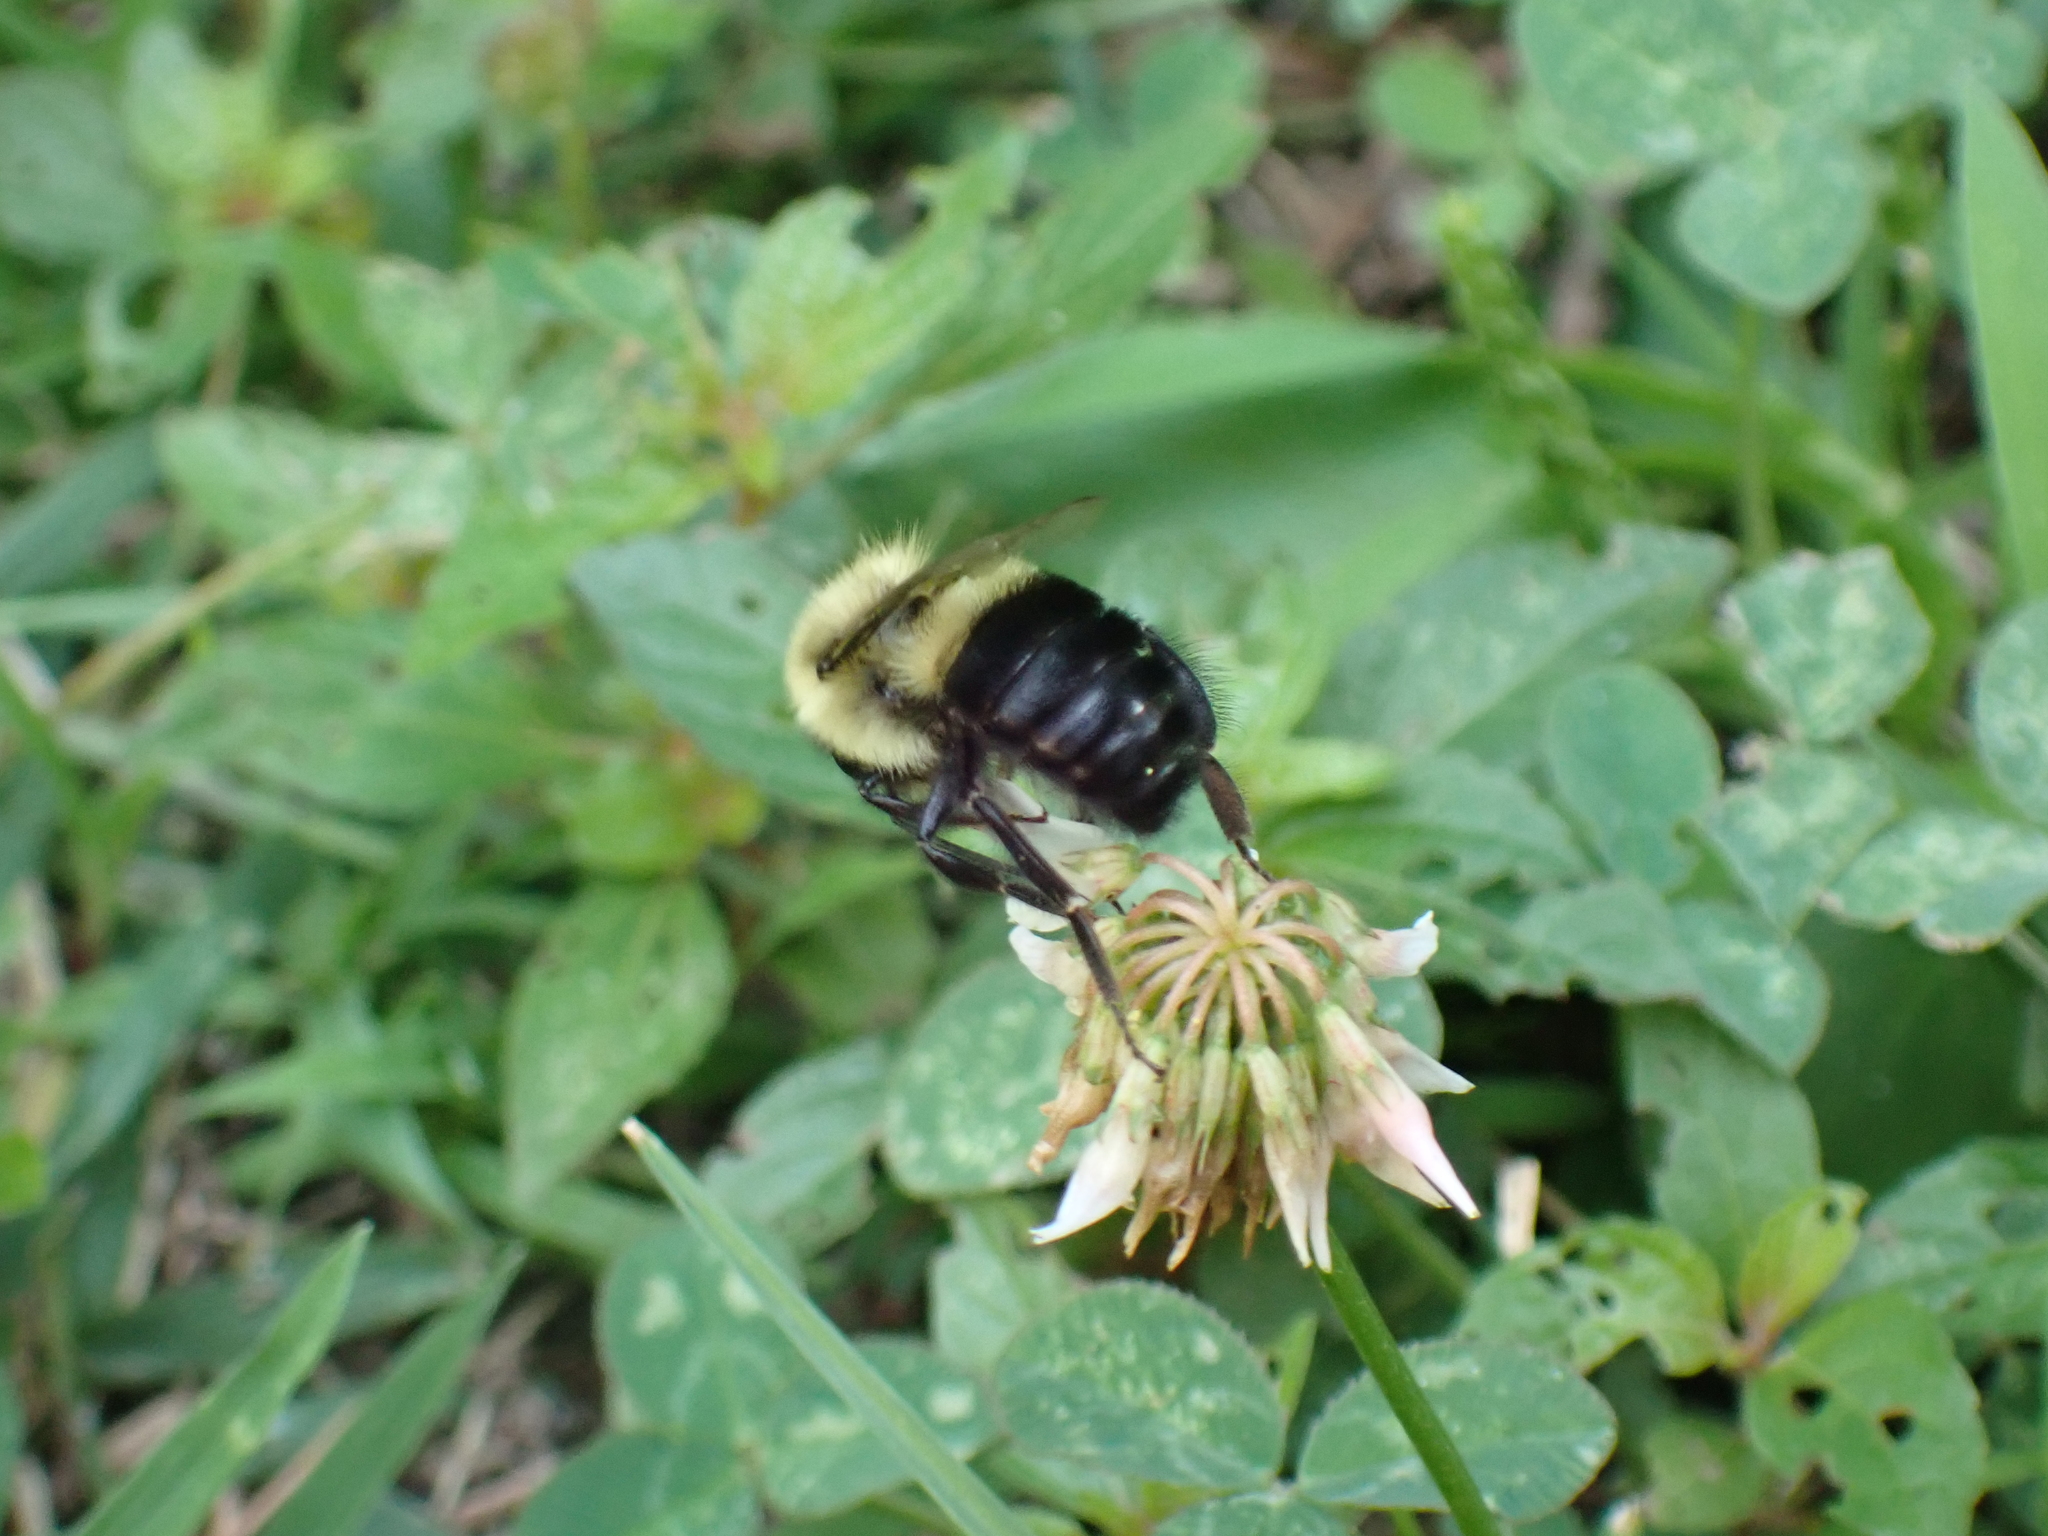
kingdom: Animalia
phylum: Arthropoda
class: Insecta
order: Hymenoptera
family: Apidae
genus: Bombus
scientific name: Bombus impatiens
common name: Common eastern bumble bee
